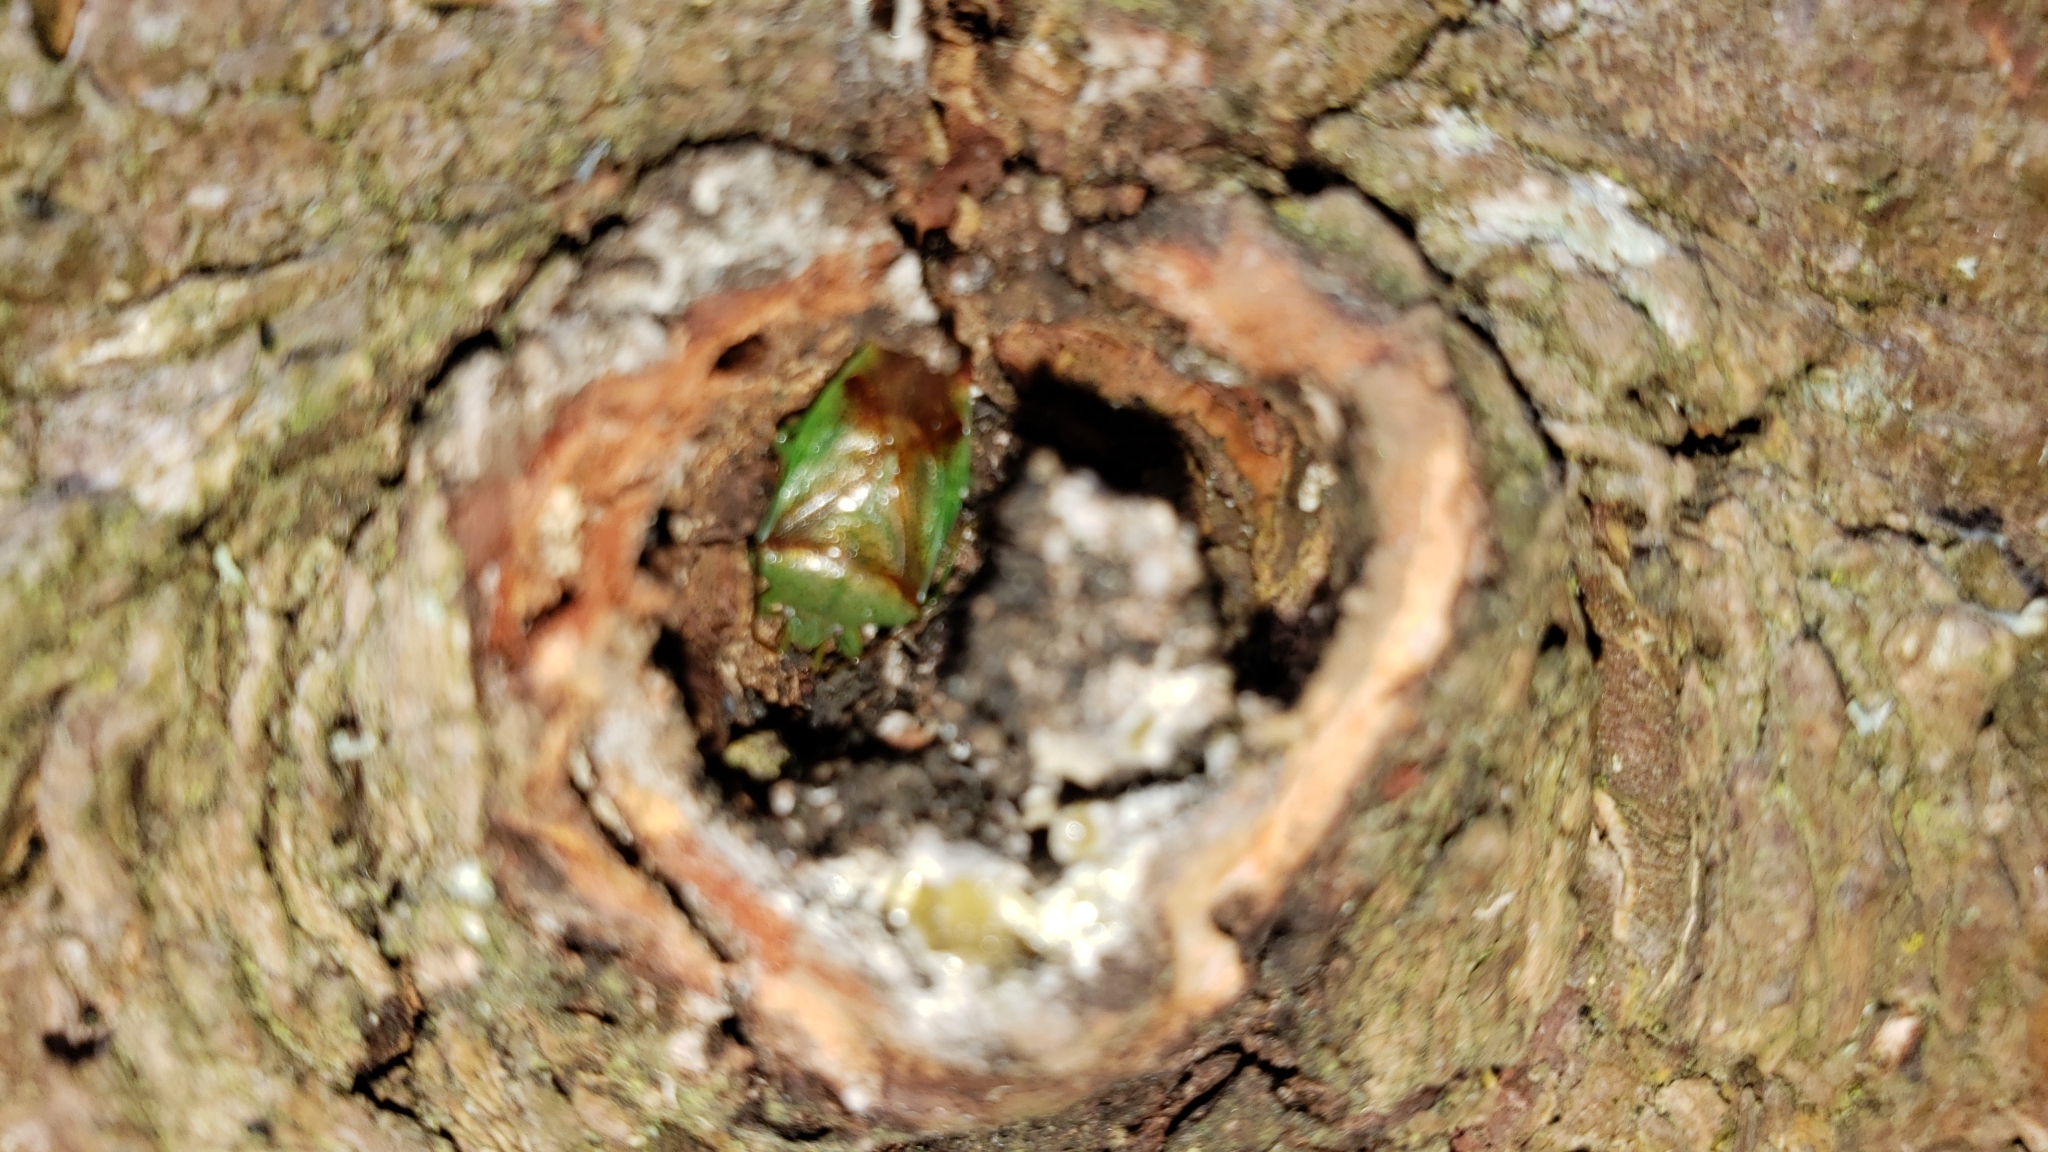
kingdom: Animalia
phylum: Arthropoda
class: Insecta
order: Hemiptera
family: Acanthosomatidae
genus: Elasmostethus
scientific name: Elasmostethus cruciatus
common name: Red-cross shield bug
